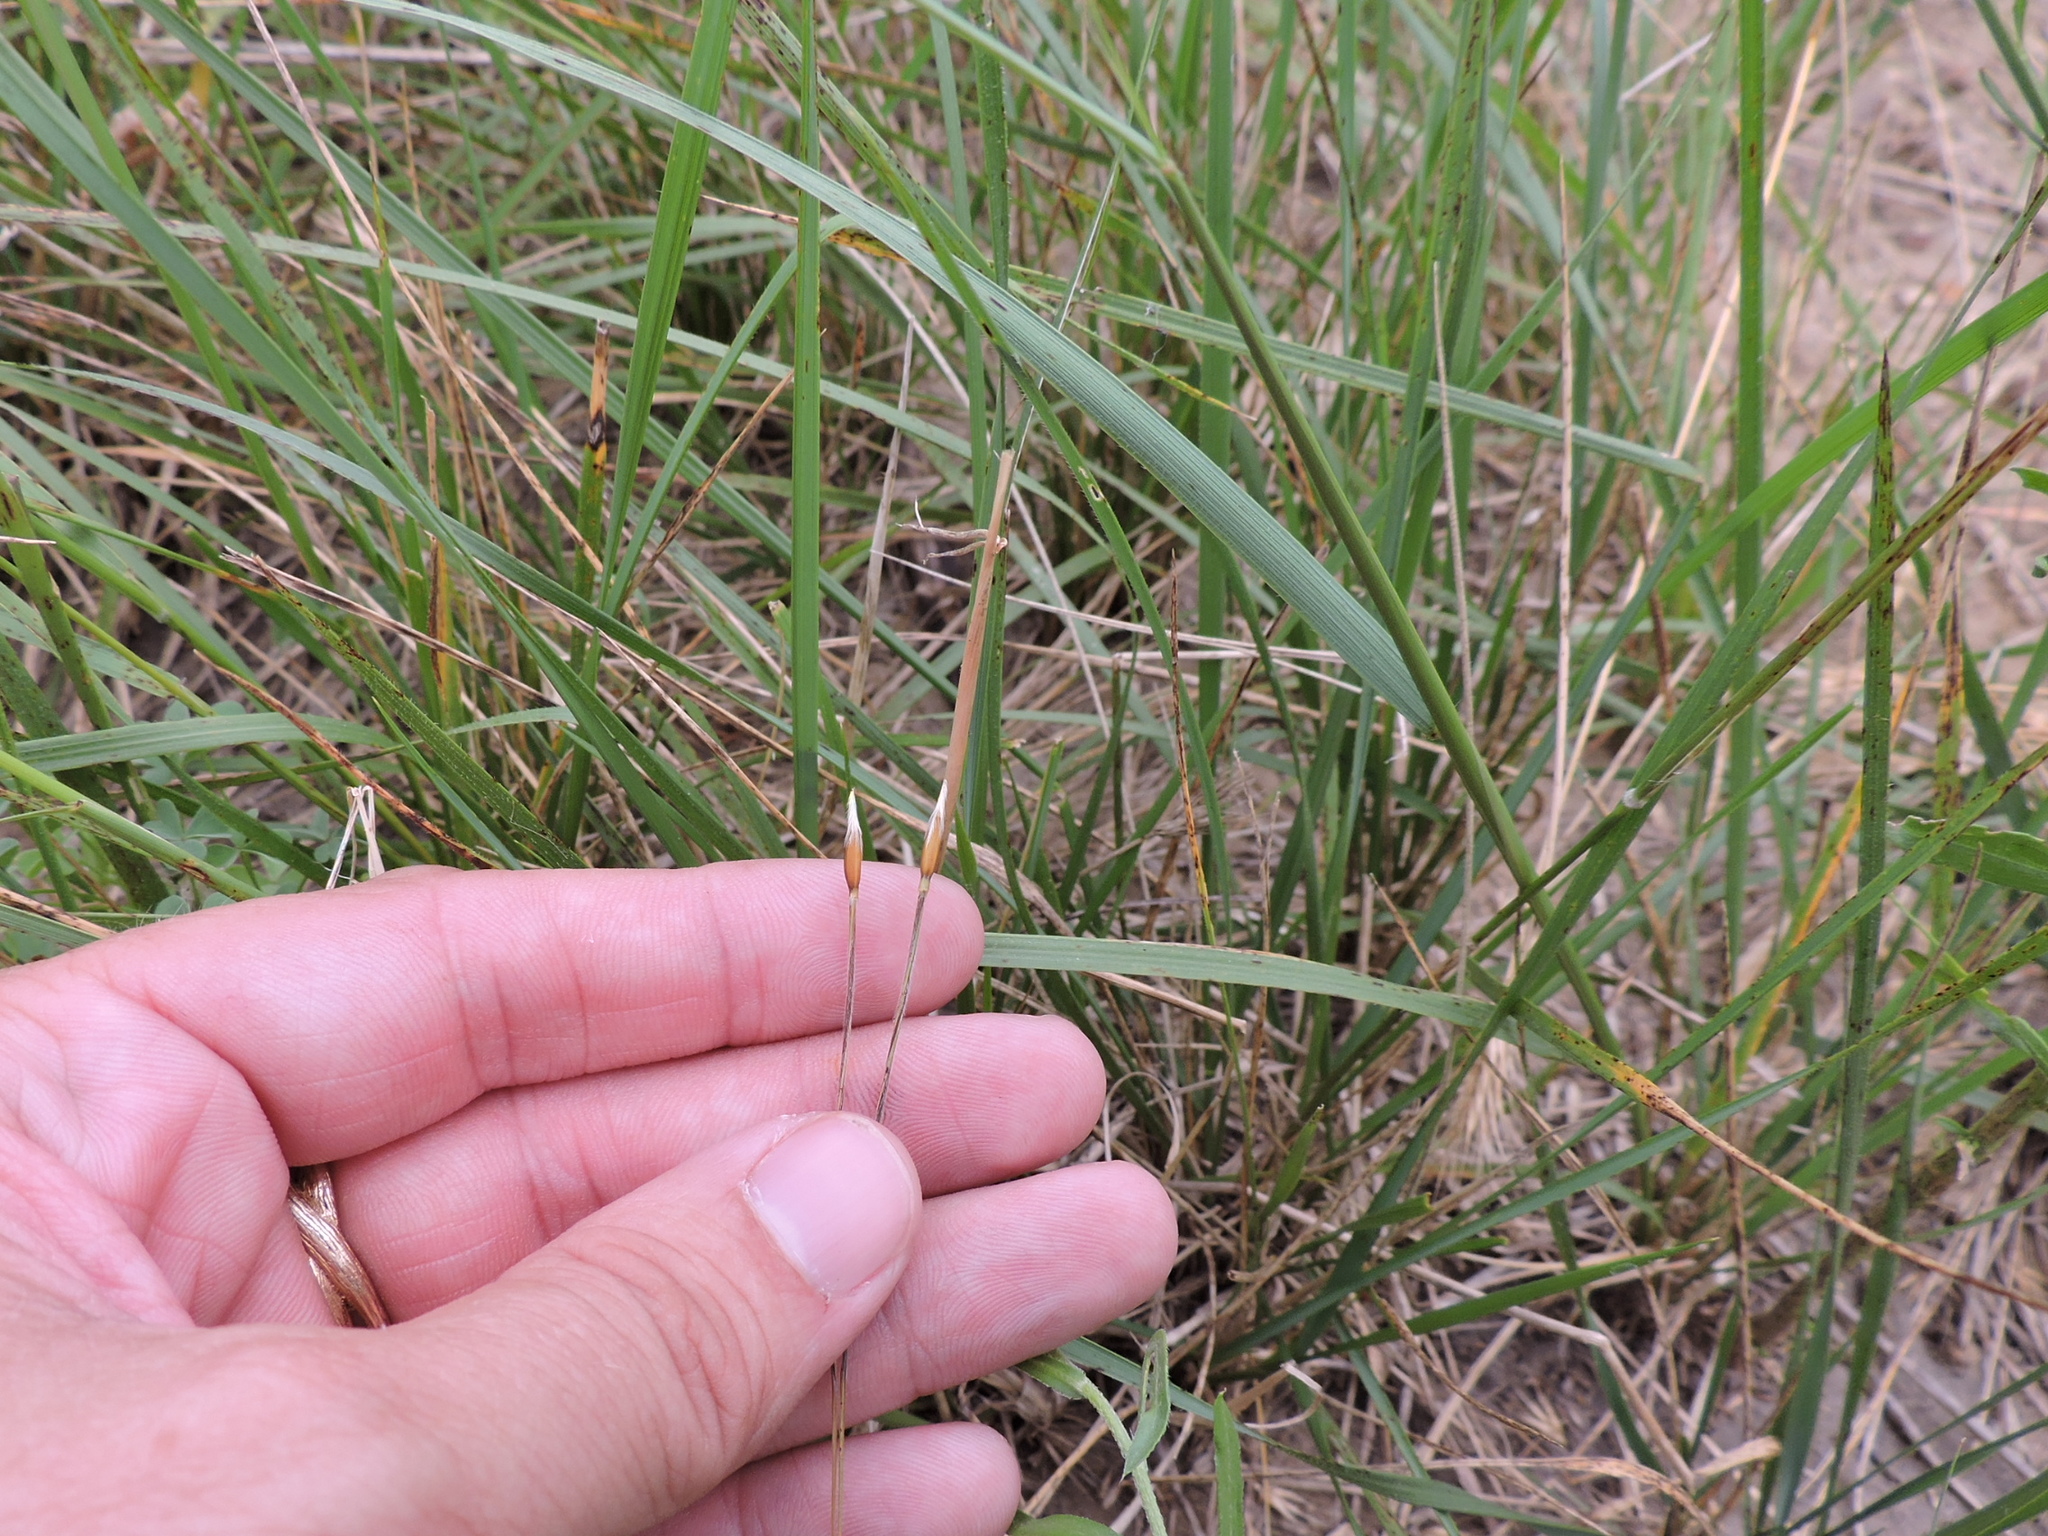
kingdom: Plantae
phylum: Tracheophyta
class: Liliopsida
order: Poales
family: Poaceae
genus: Nassella
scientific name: Nassella leucotricha
